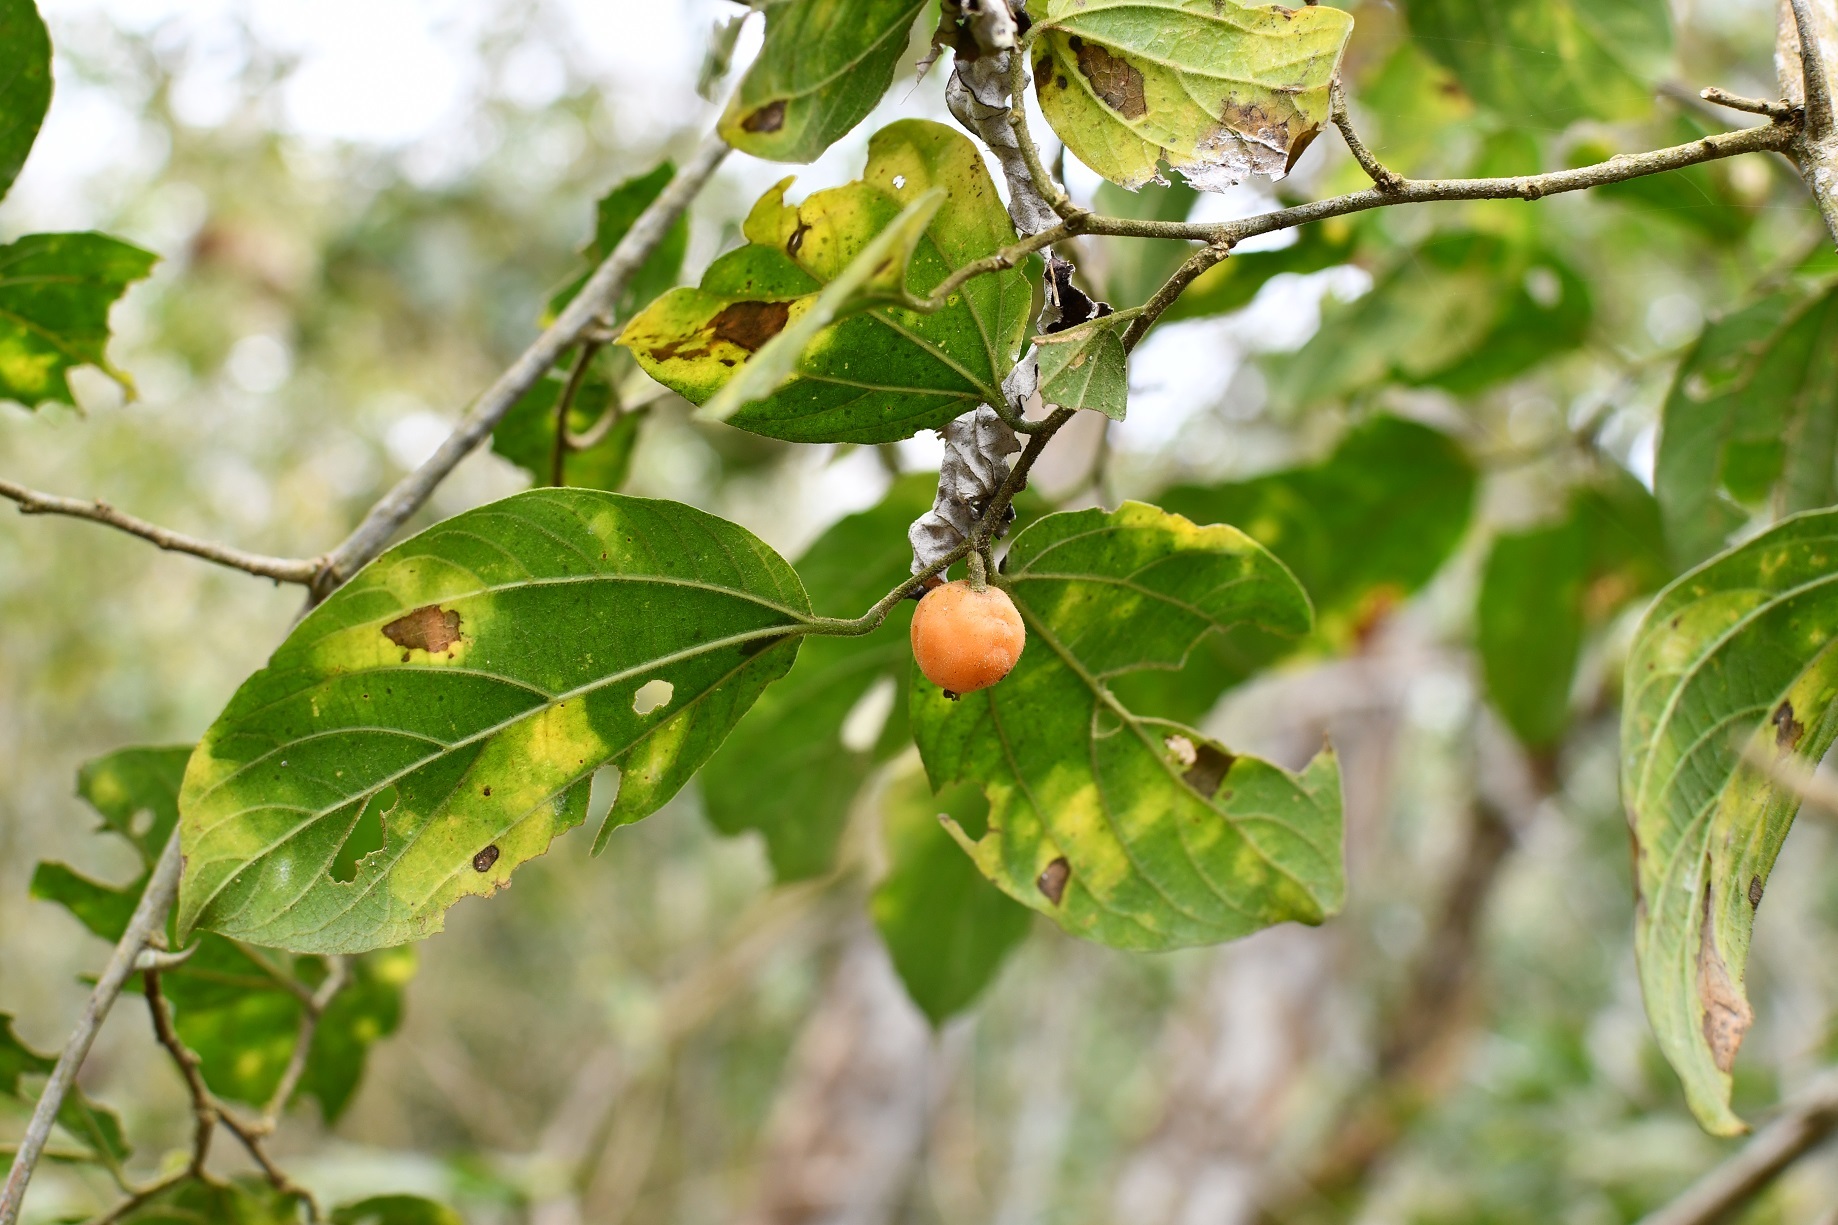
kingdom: Plantae
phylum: Tracheophyta
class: Magnoliopsida
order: Rosales
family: Cannabaceae
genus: Celtis
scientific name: Celtis iguanaea
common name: Iguana hackberry
